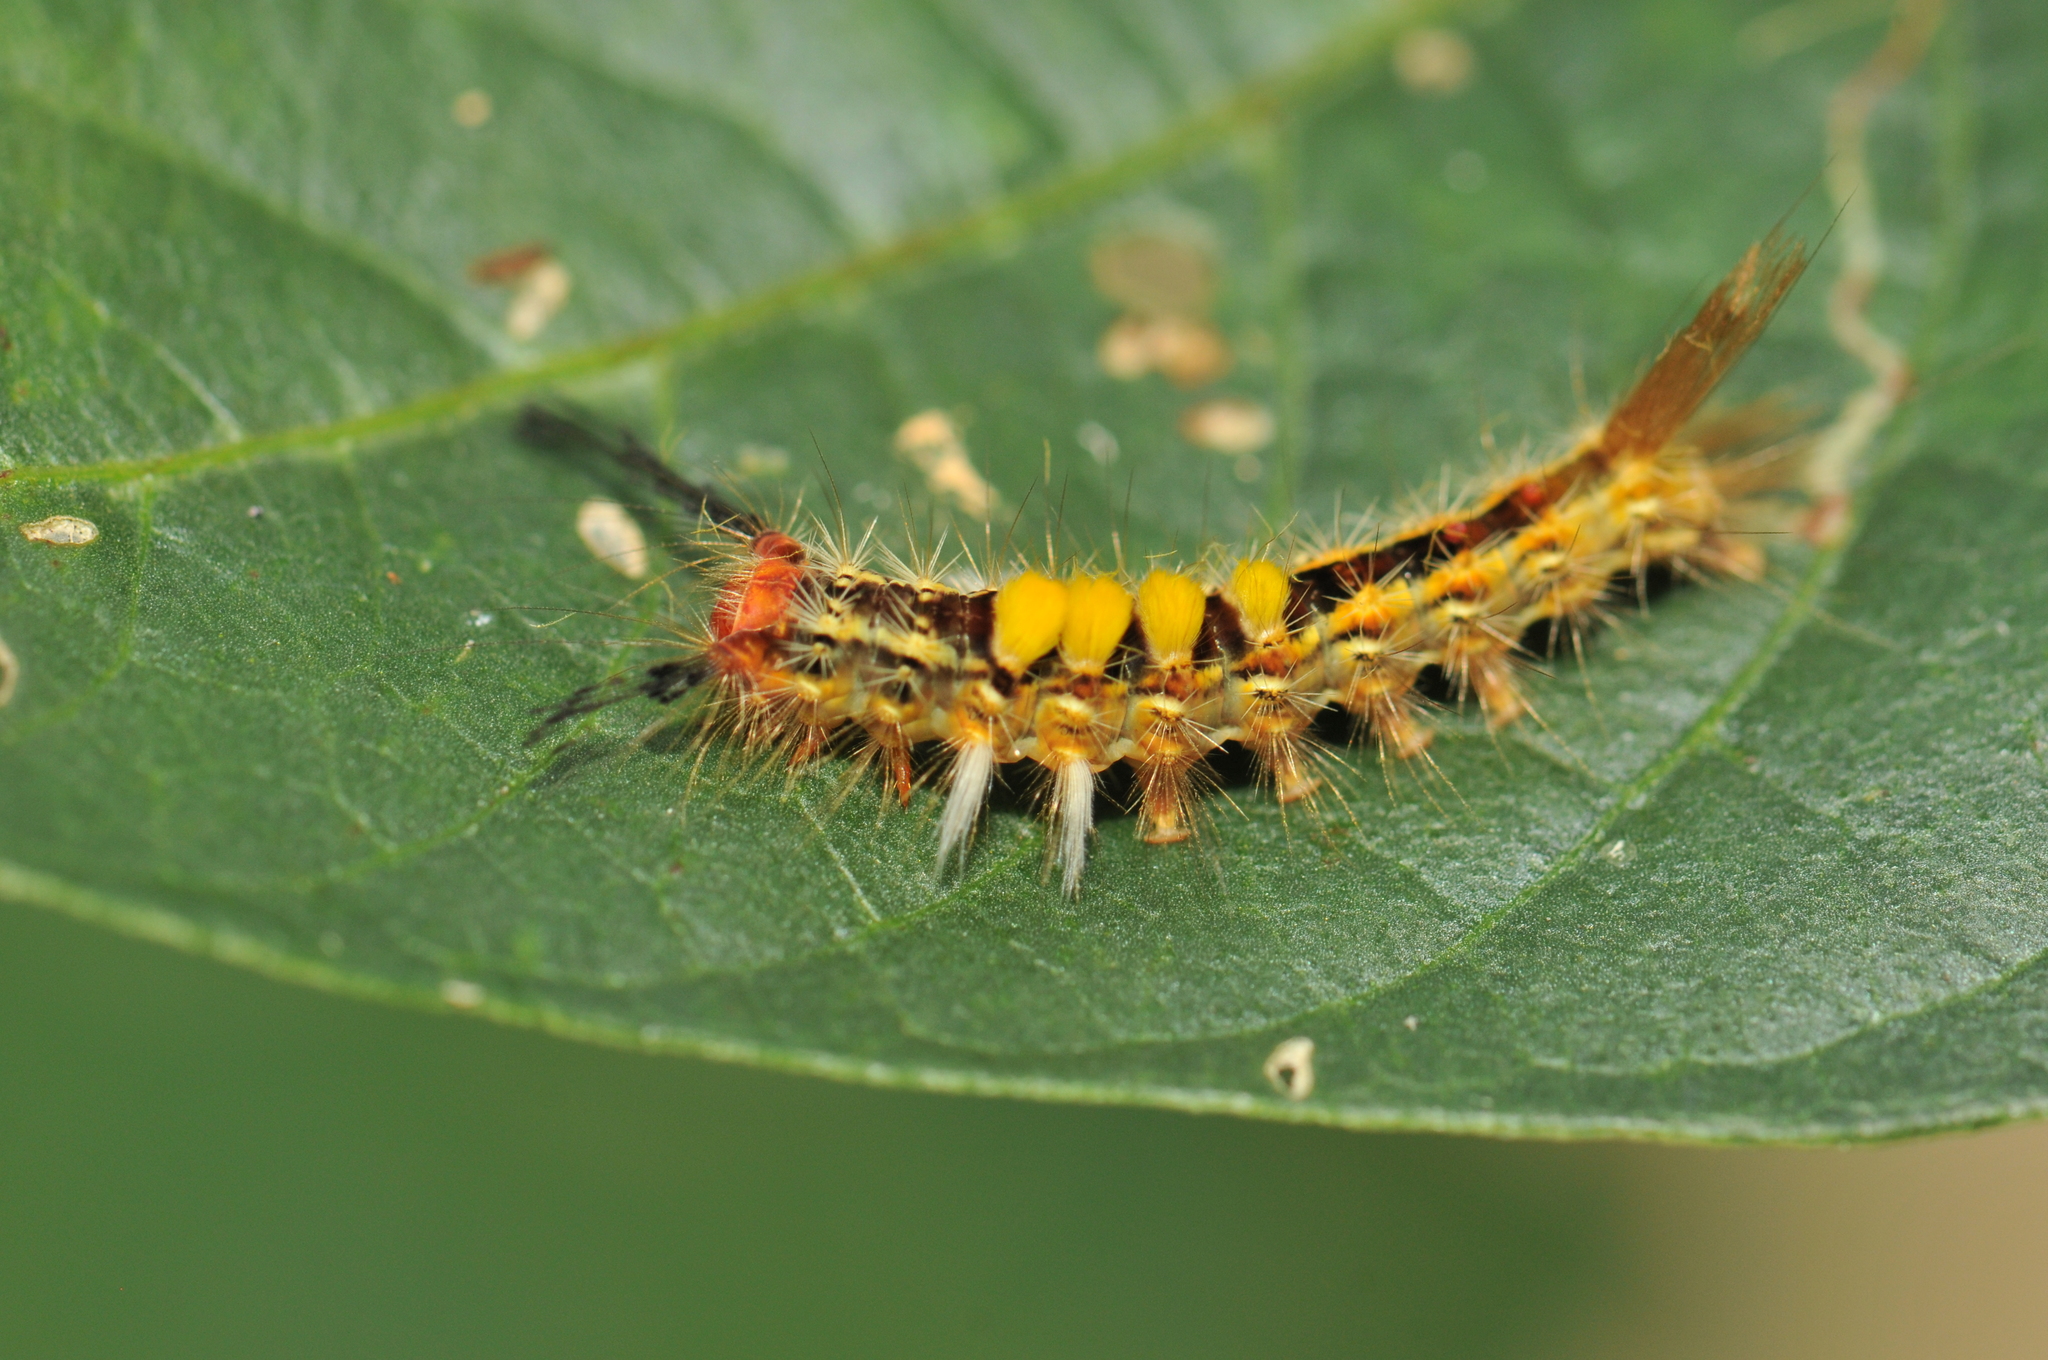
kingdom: Animalia
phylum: Arthropoda
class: Insecta
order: Lepidoptera
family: Erebidae
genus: Orgyia
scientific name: Orgyia postica
